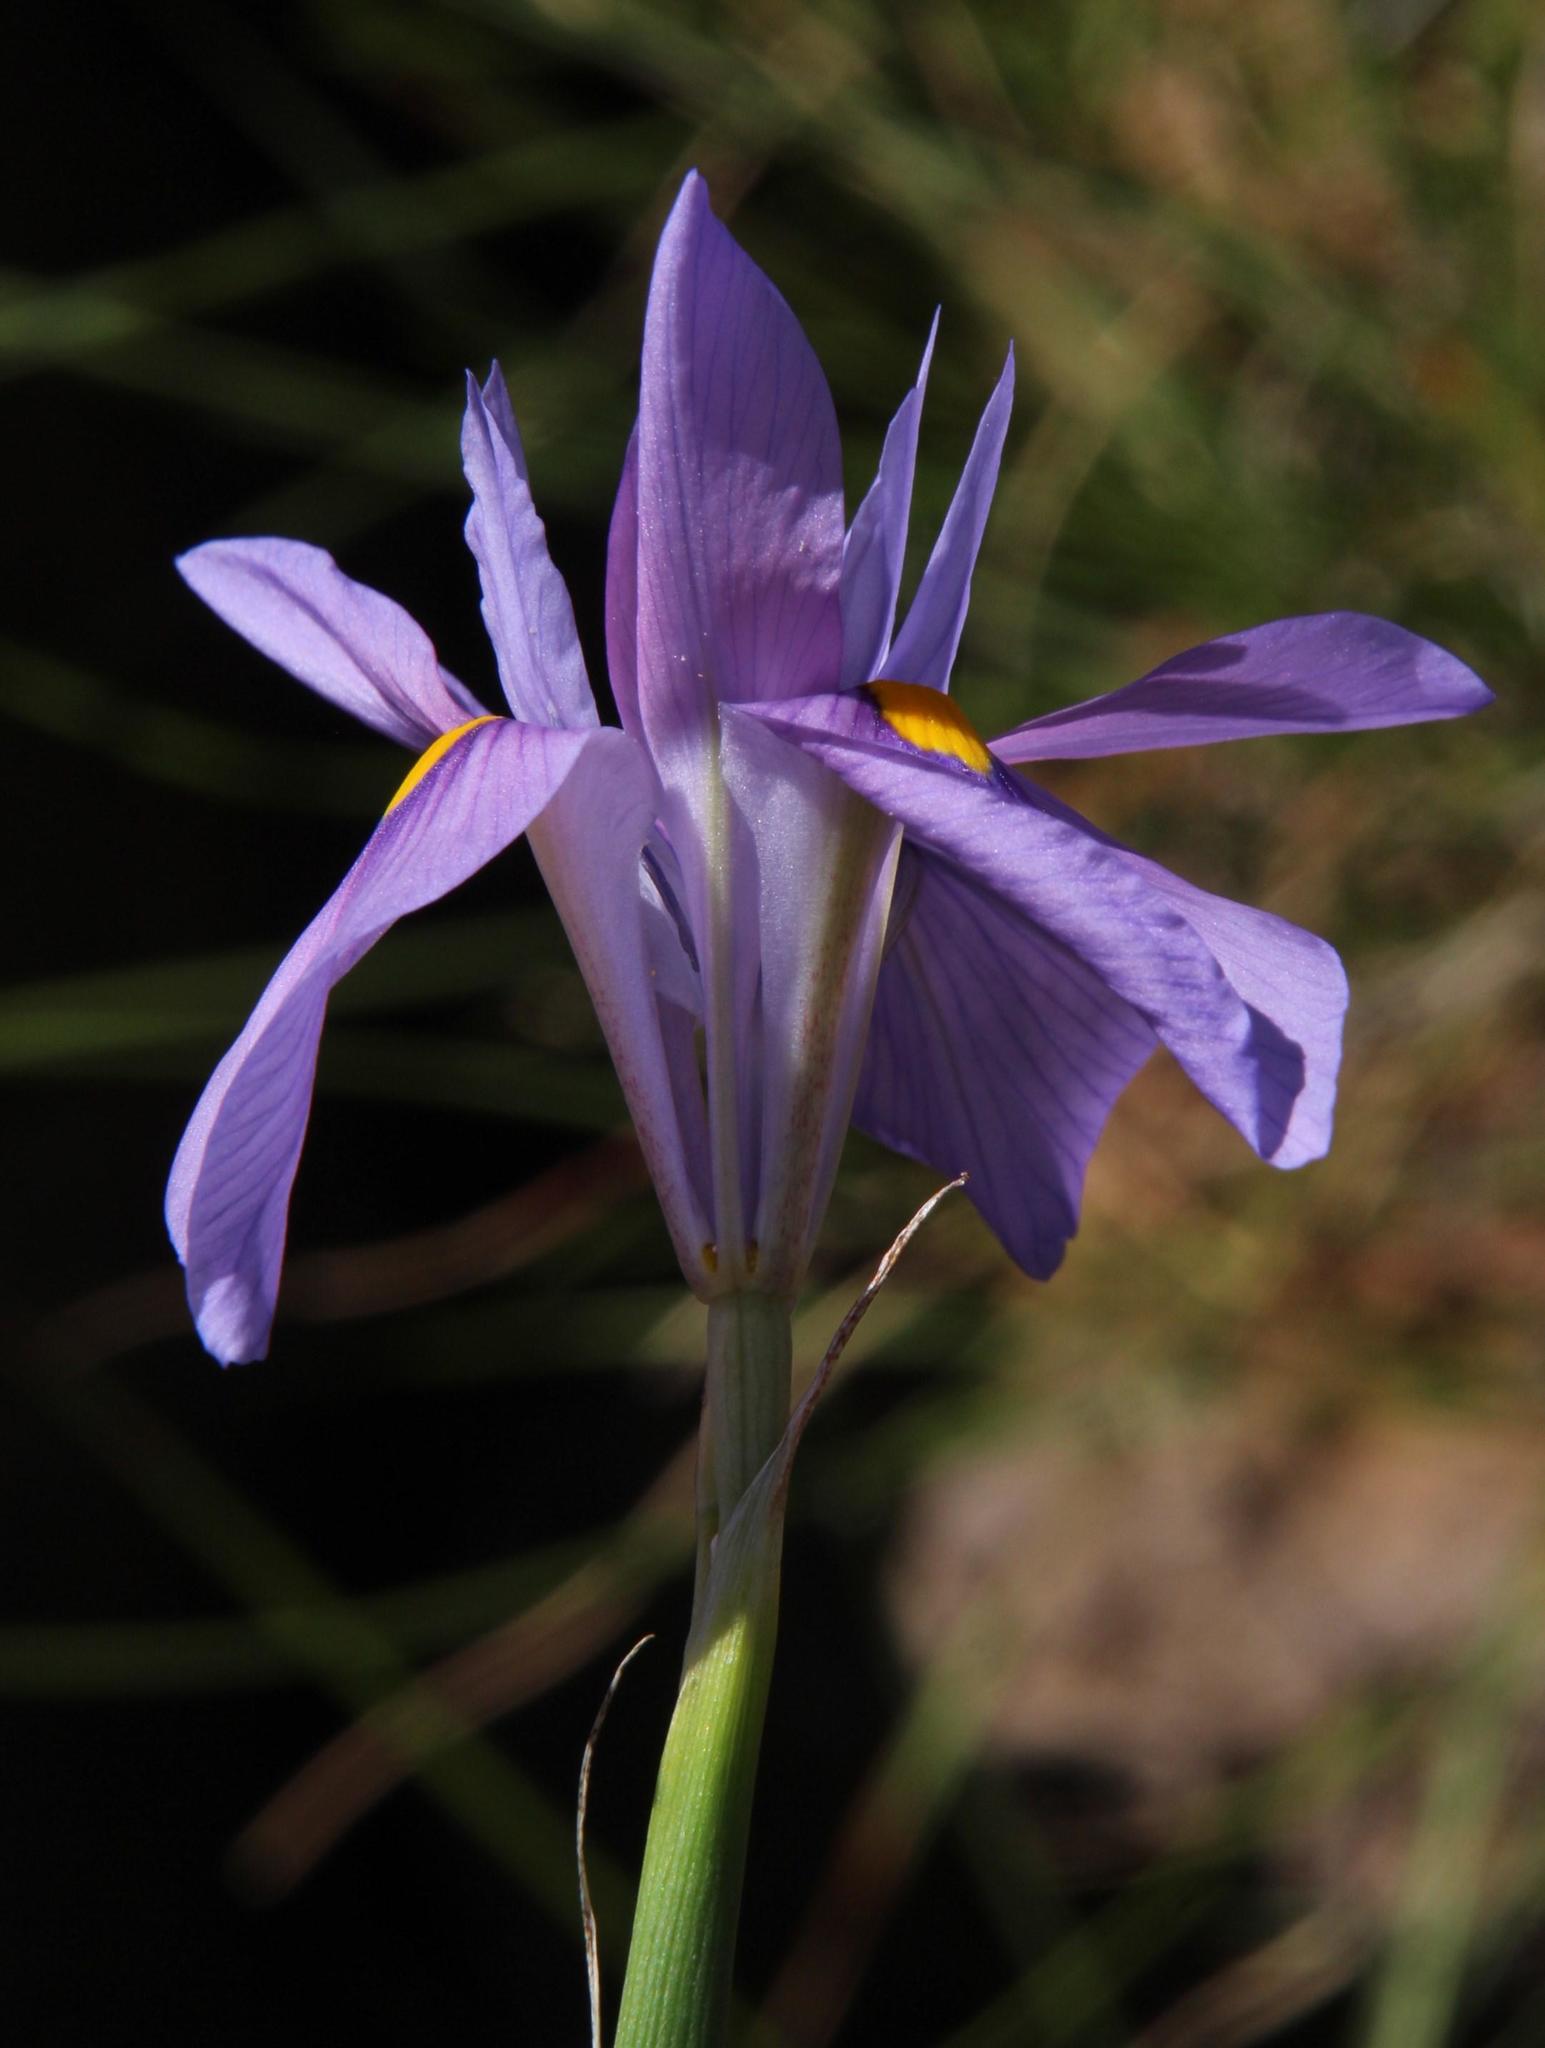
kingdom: Plantae
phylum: Tracheophyta
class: Liliopsida
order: Asparagales
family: Iridaceae
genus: Moraea
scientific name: Moraea polystachya
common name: Blue-tulip
